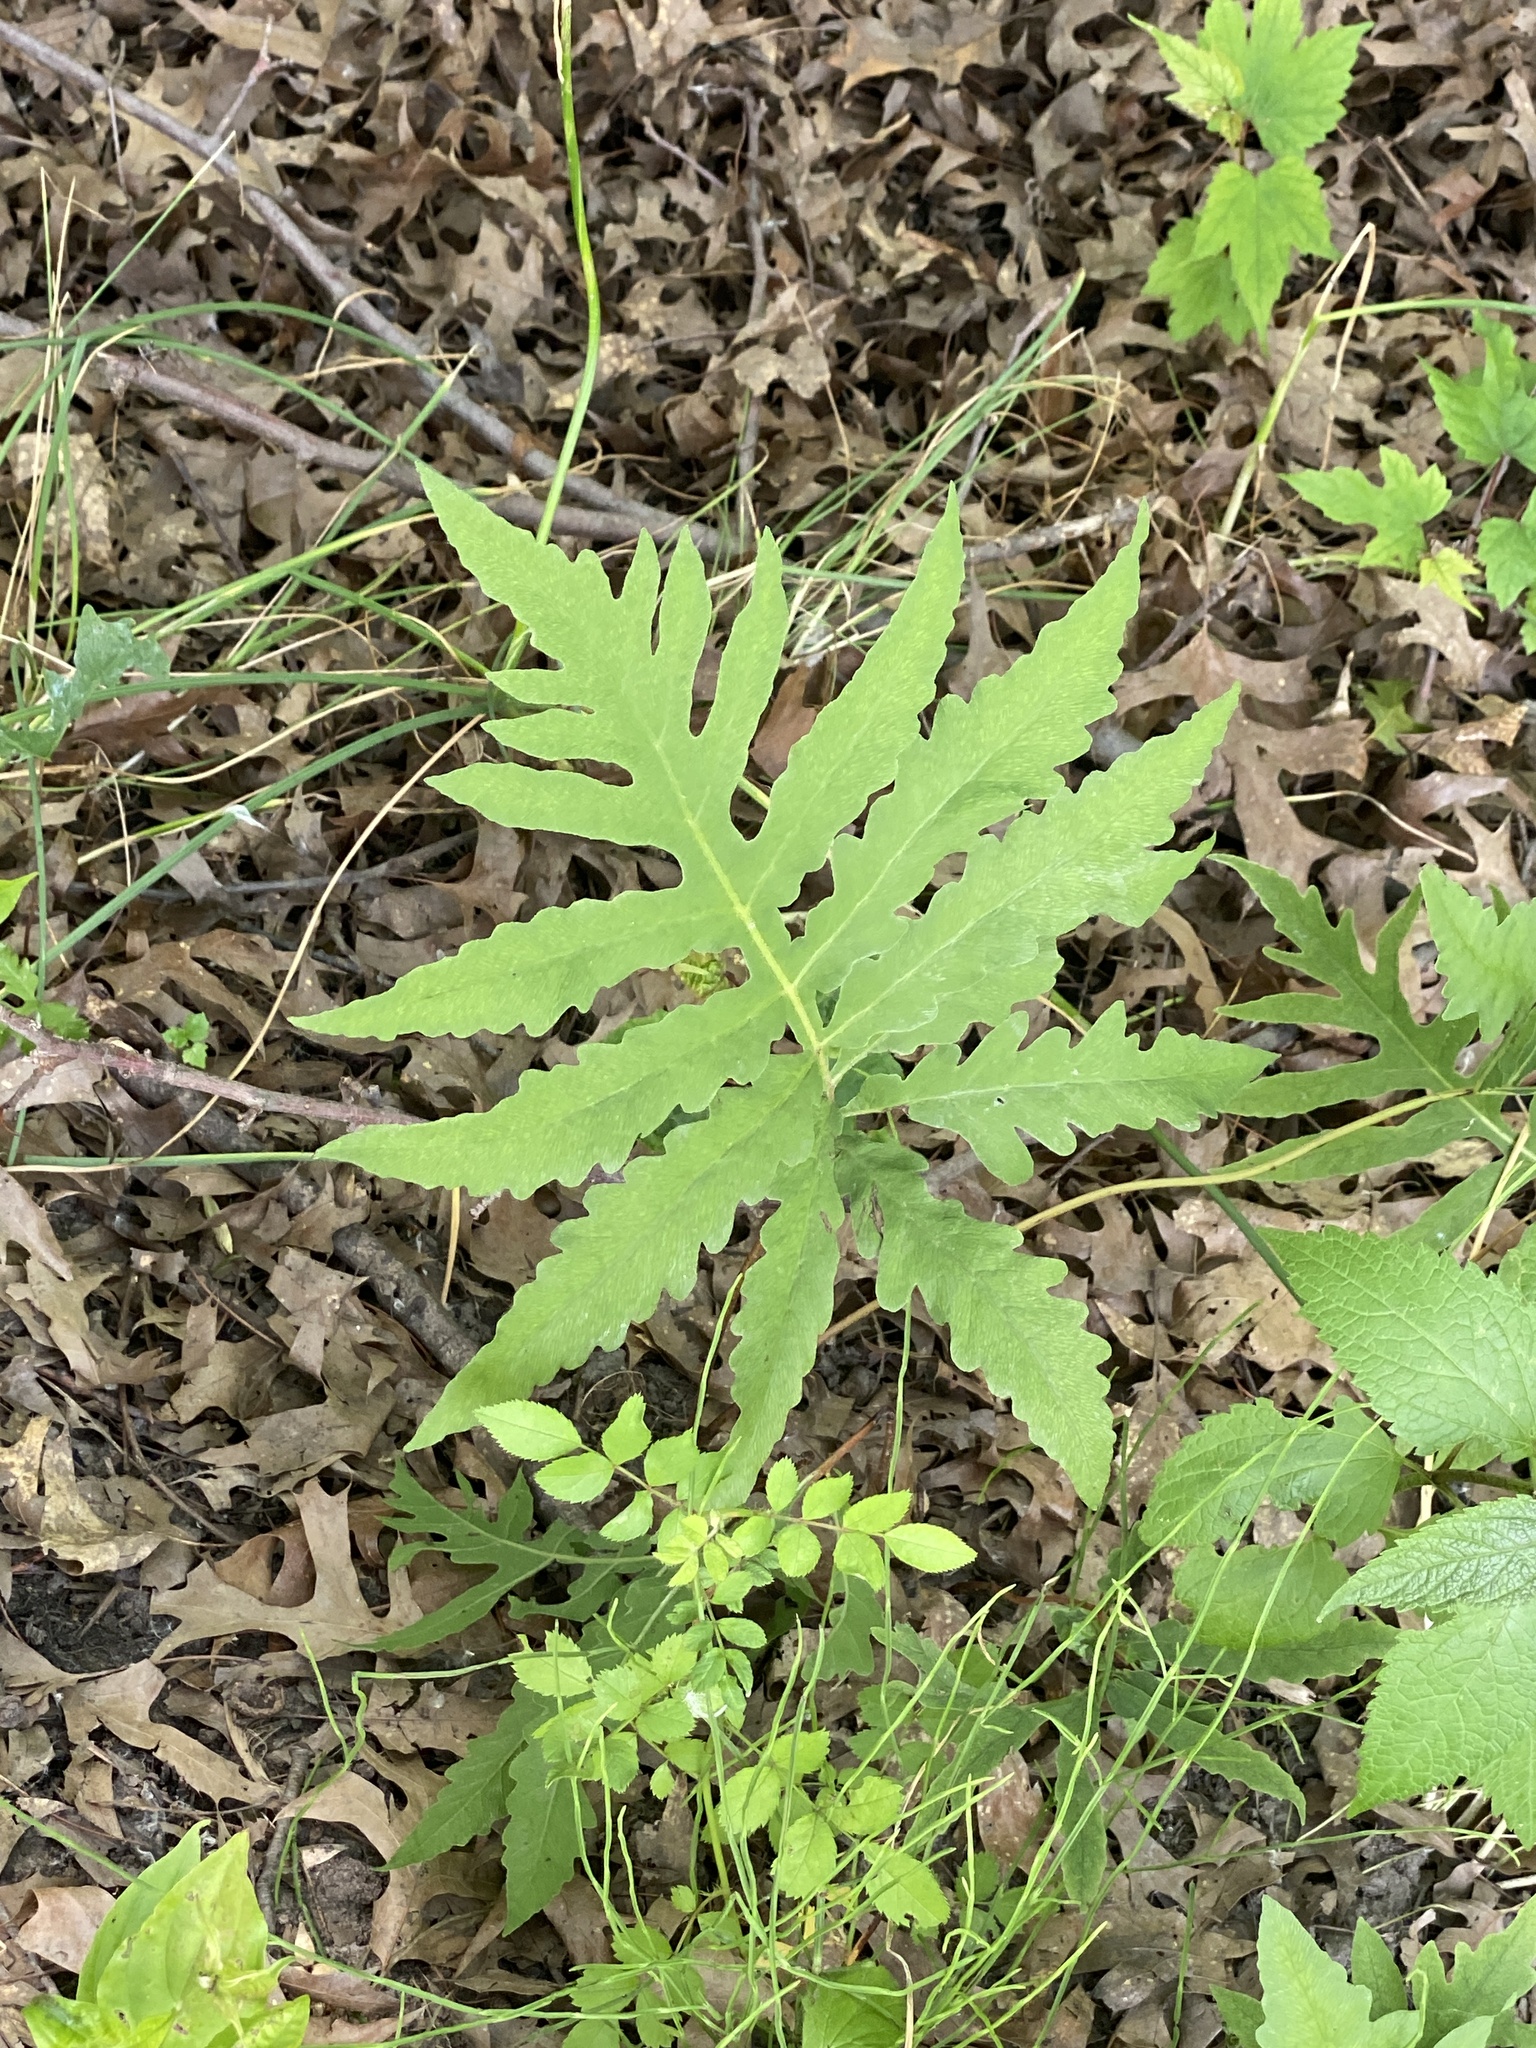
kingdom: Plantae
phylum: Tracheophyta
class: Polypodiopsida
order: Polypodiales
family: Onocleaceae
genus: Onoclea
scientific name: Onoclea sensibilis
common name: Sensitive fern
